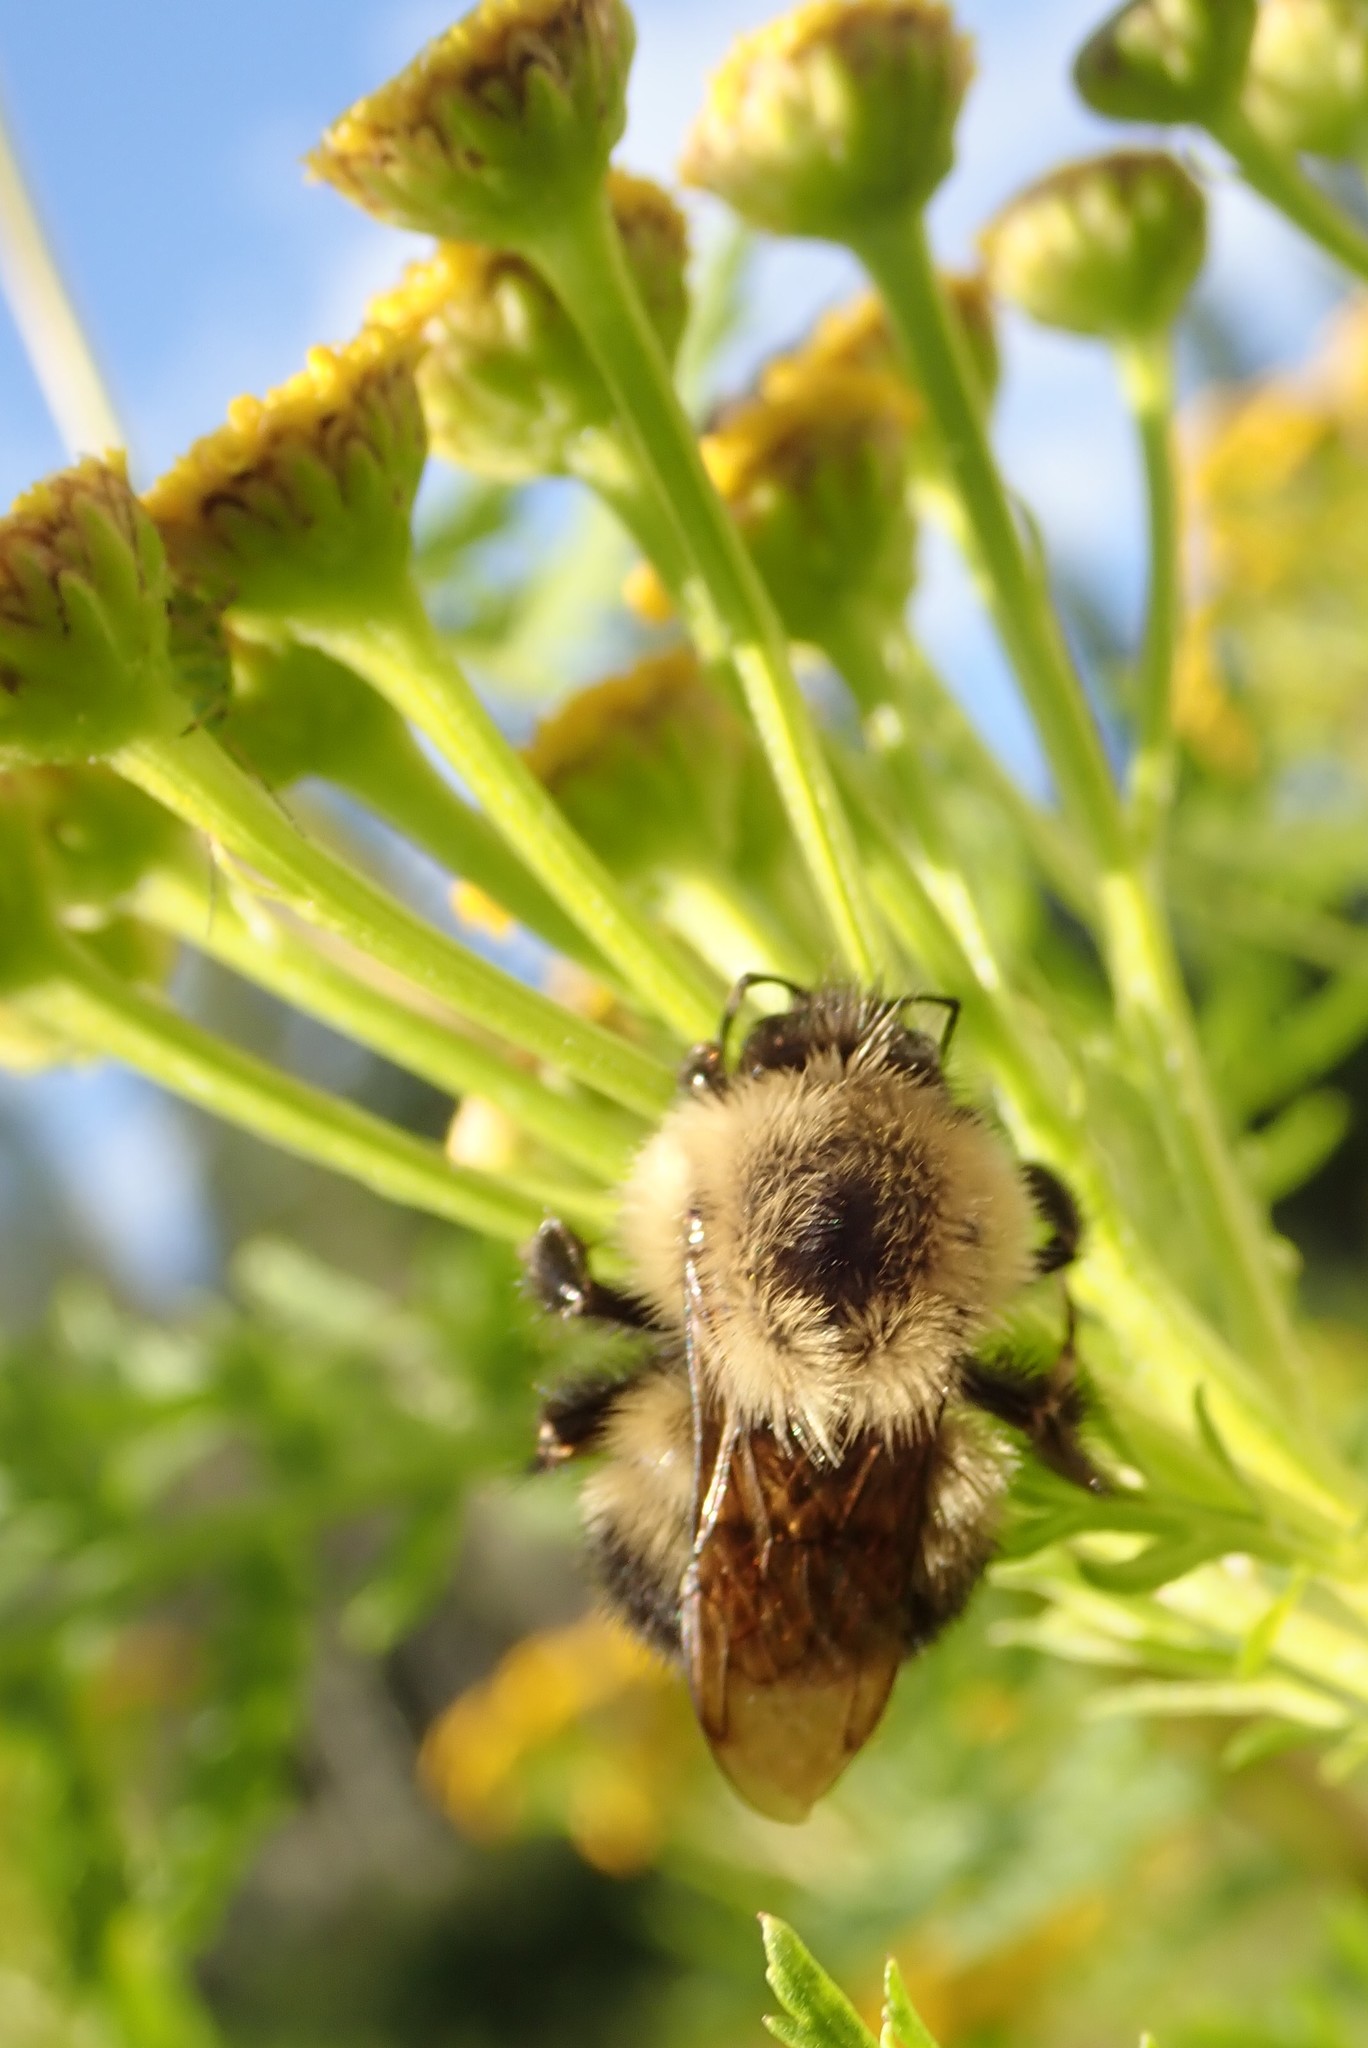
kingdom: Animalia
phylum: Arthropoda
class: Insecta
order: Hymenoptera
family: Apidae
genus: Pyrobombus
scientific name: Pyrobombus
